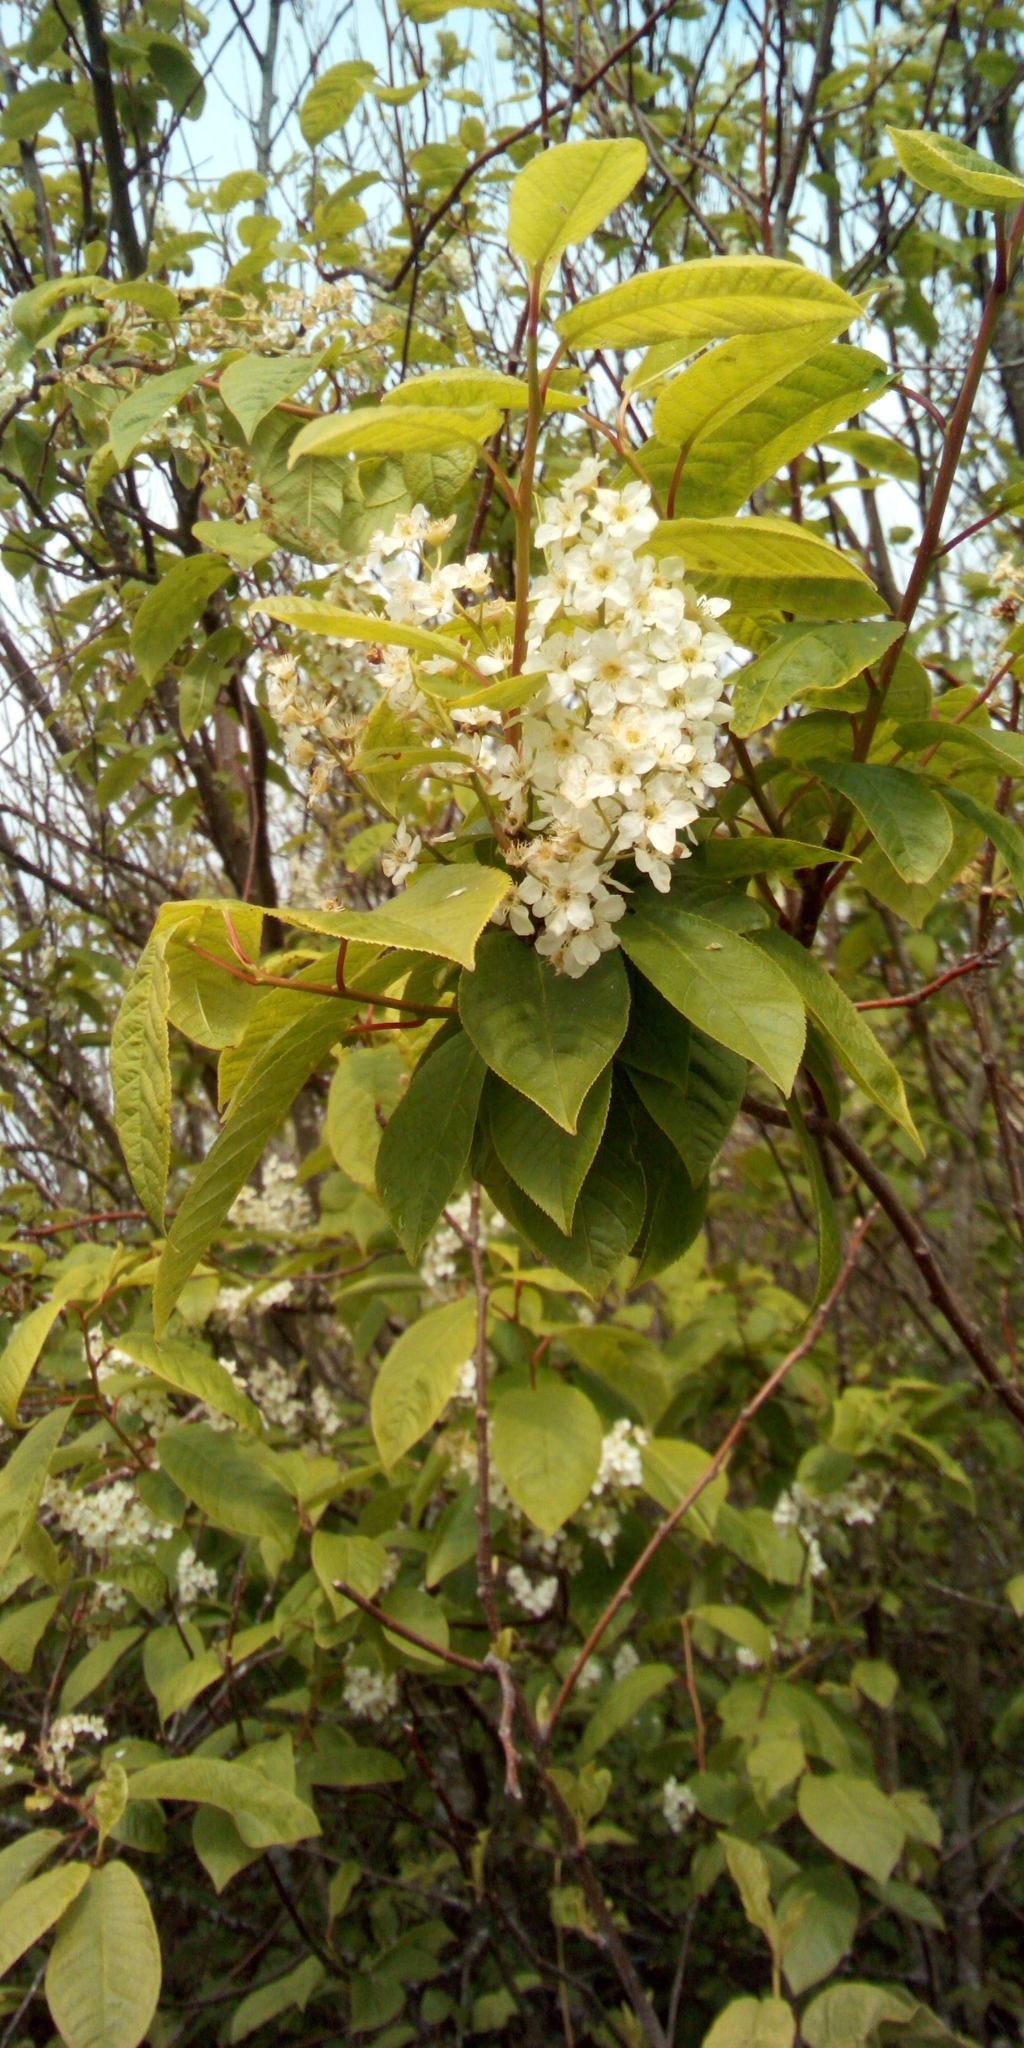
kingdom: Plantae
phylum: Tracheophyta
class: Magnoliopsida
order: Rosales
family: Rosaceae
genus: Prunus
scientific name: Prunus padus
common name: Bird cherry
